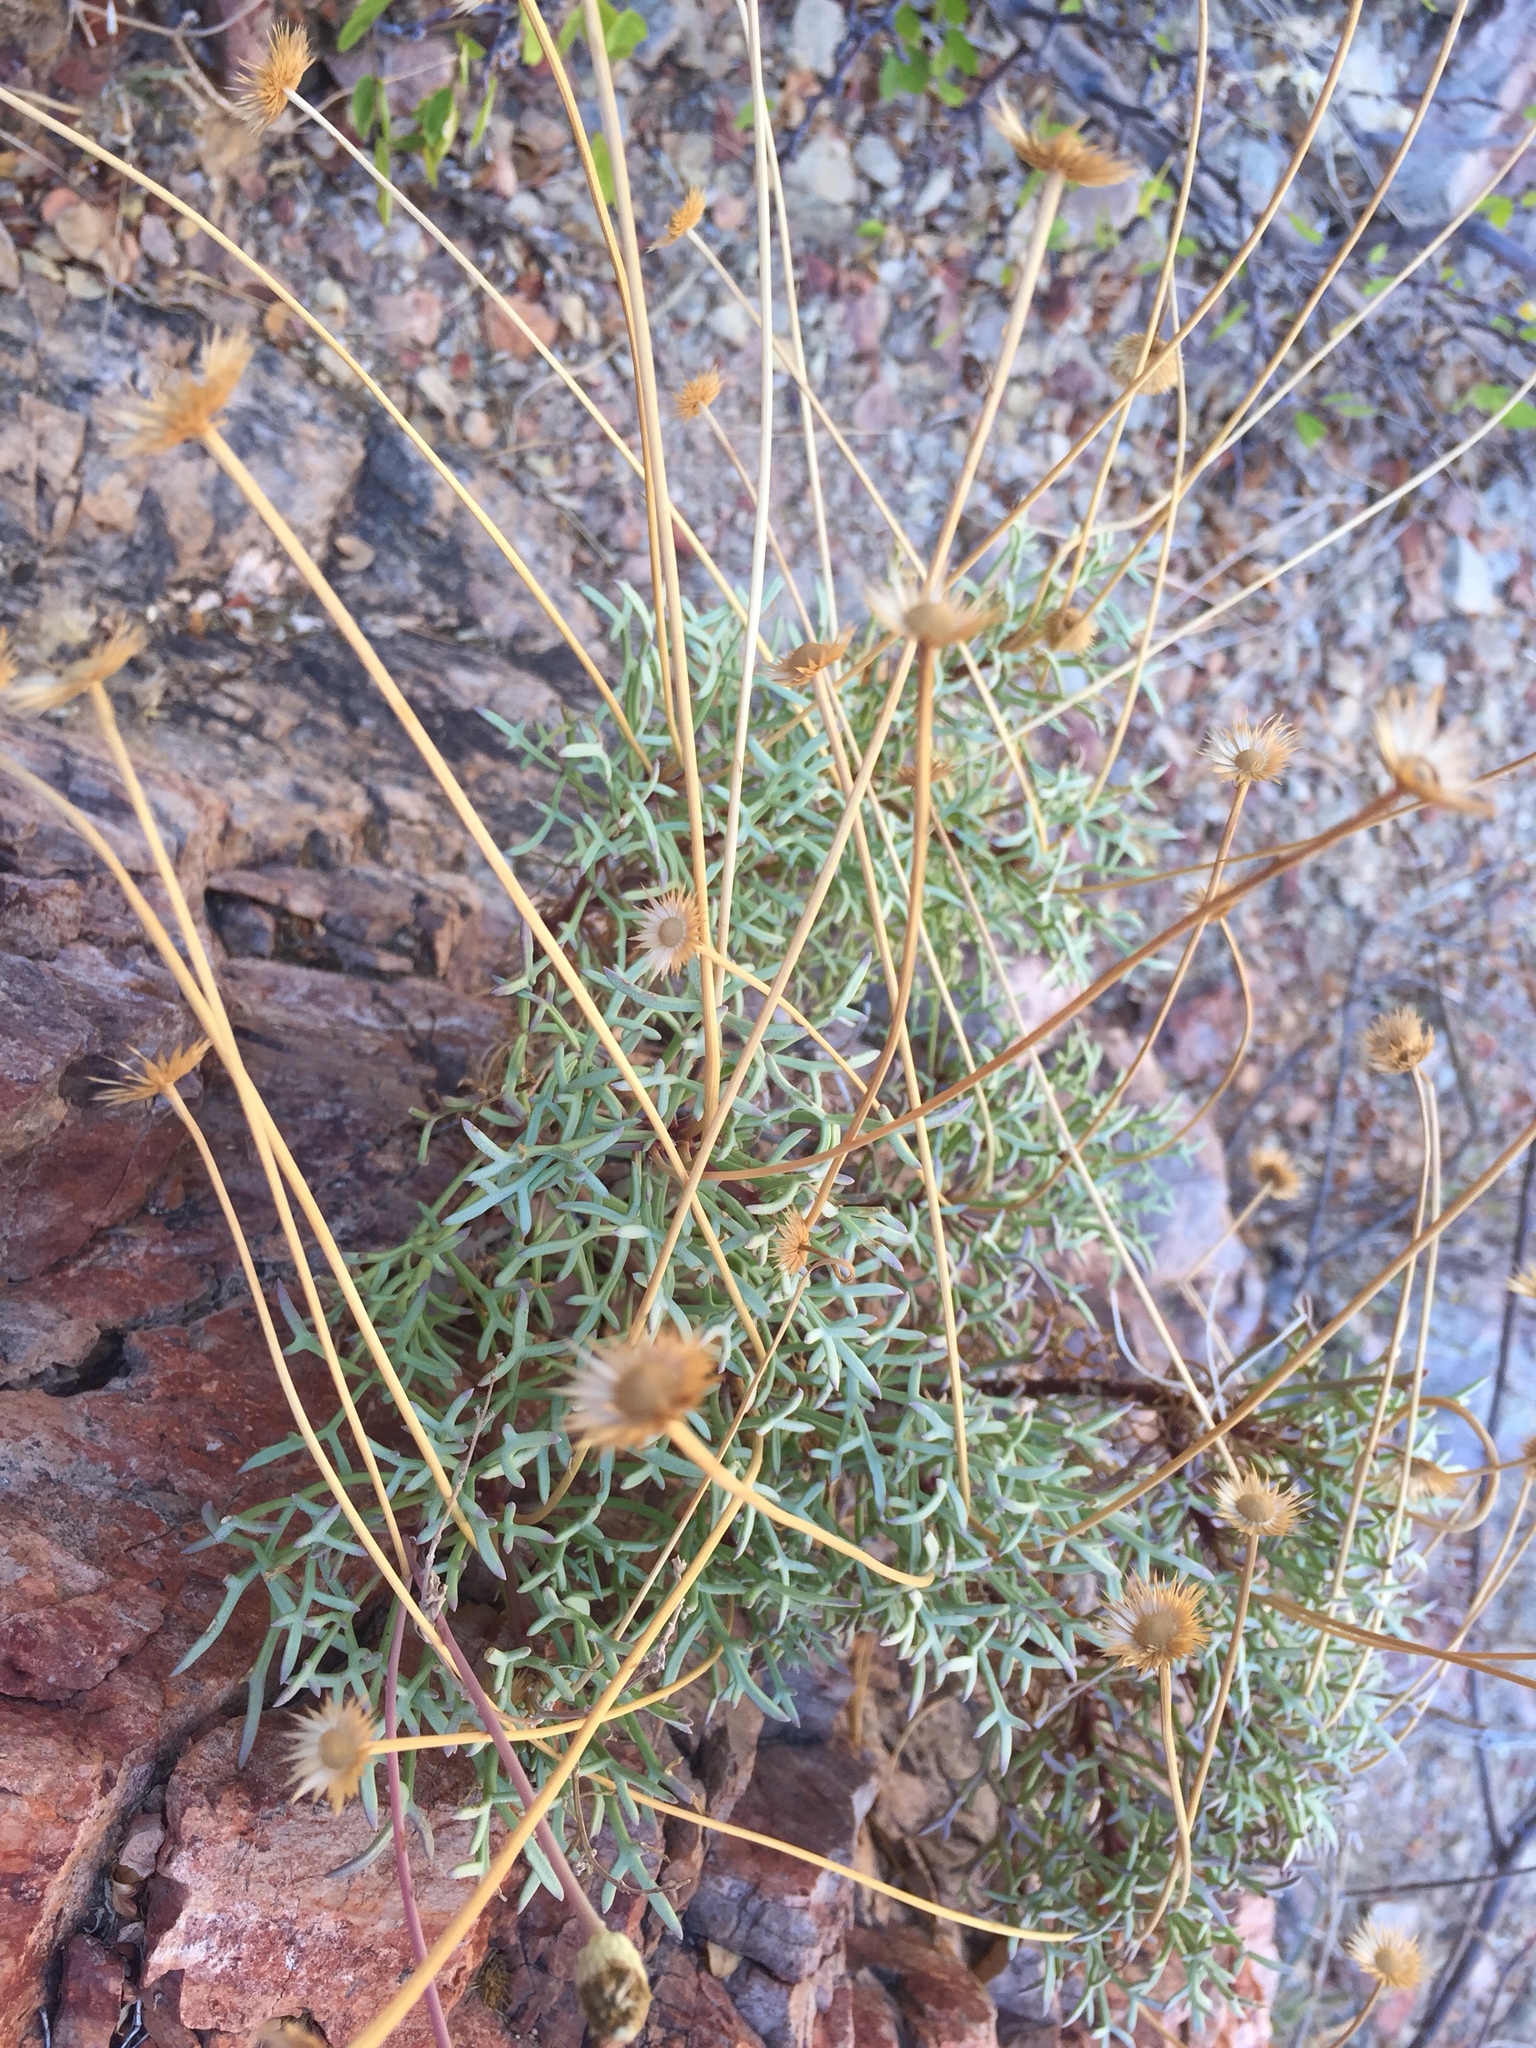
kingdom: Plantae
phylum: Tracheophyta
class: Liliopsida
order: Poales
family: Bromeliaceae
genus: Hechtia
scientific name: Hechtia montana
